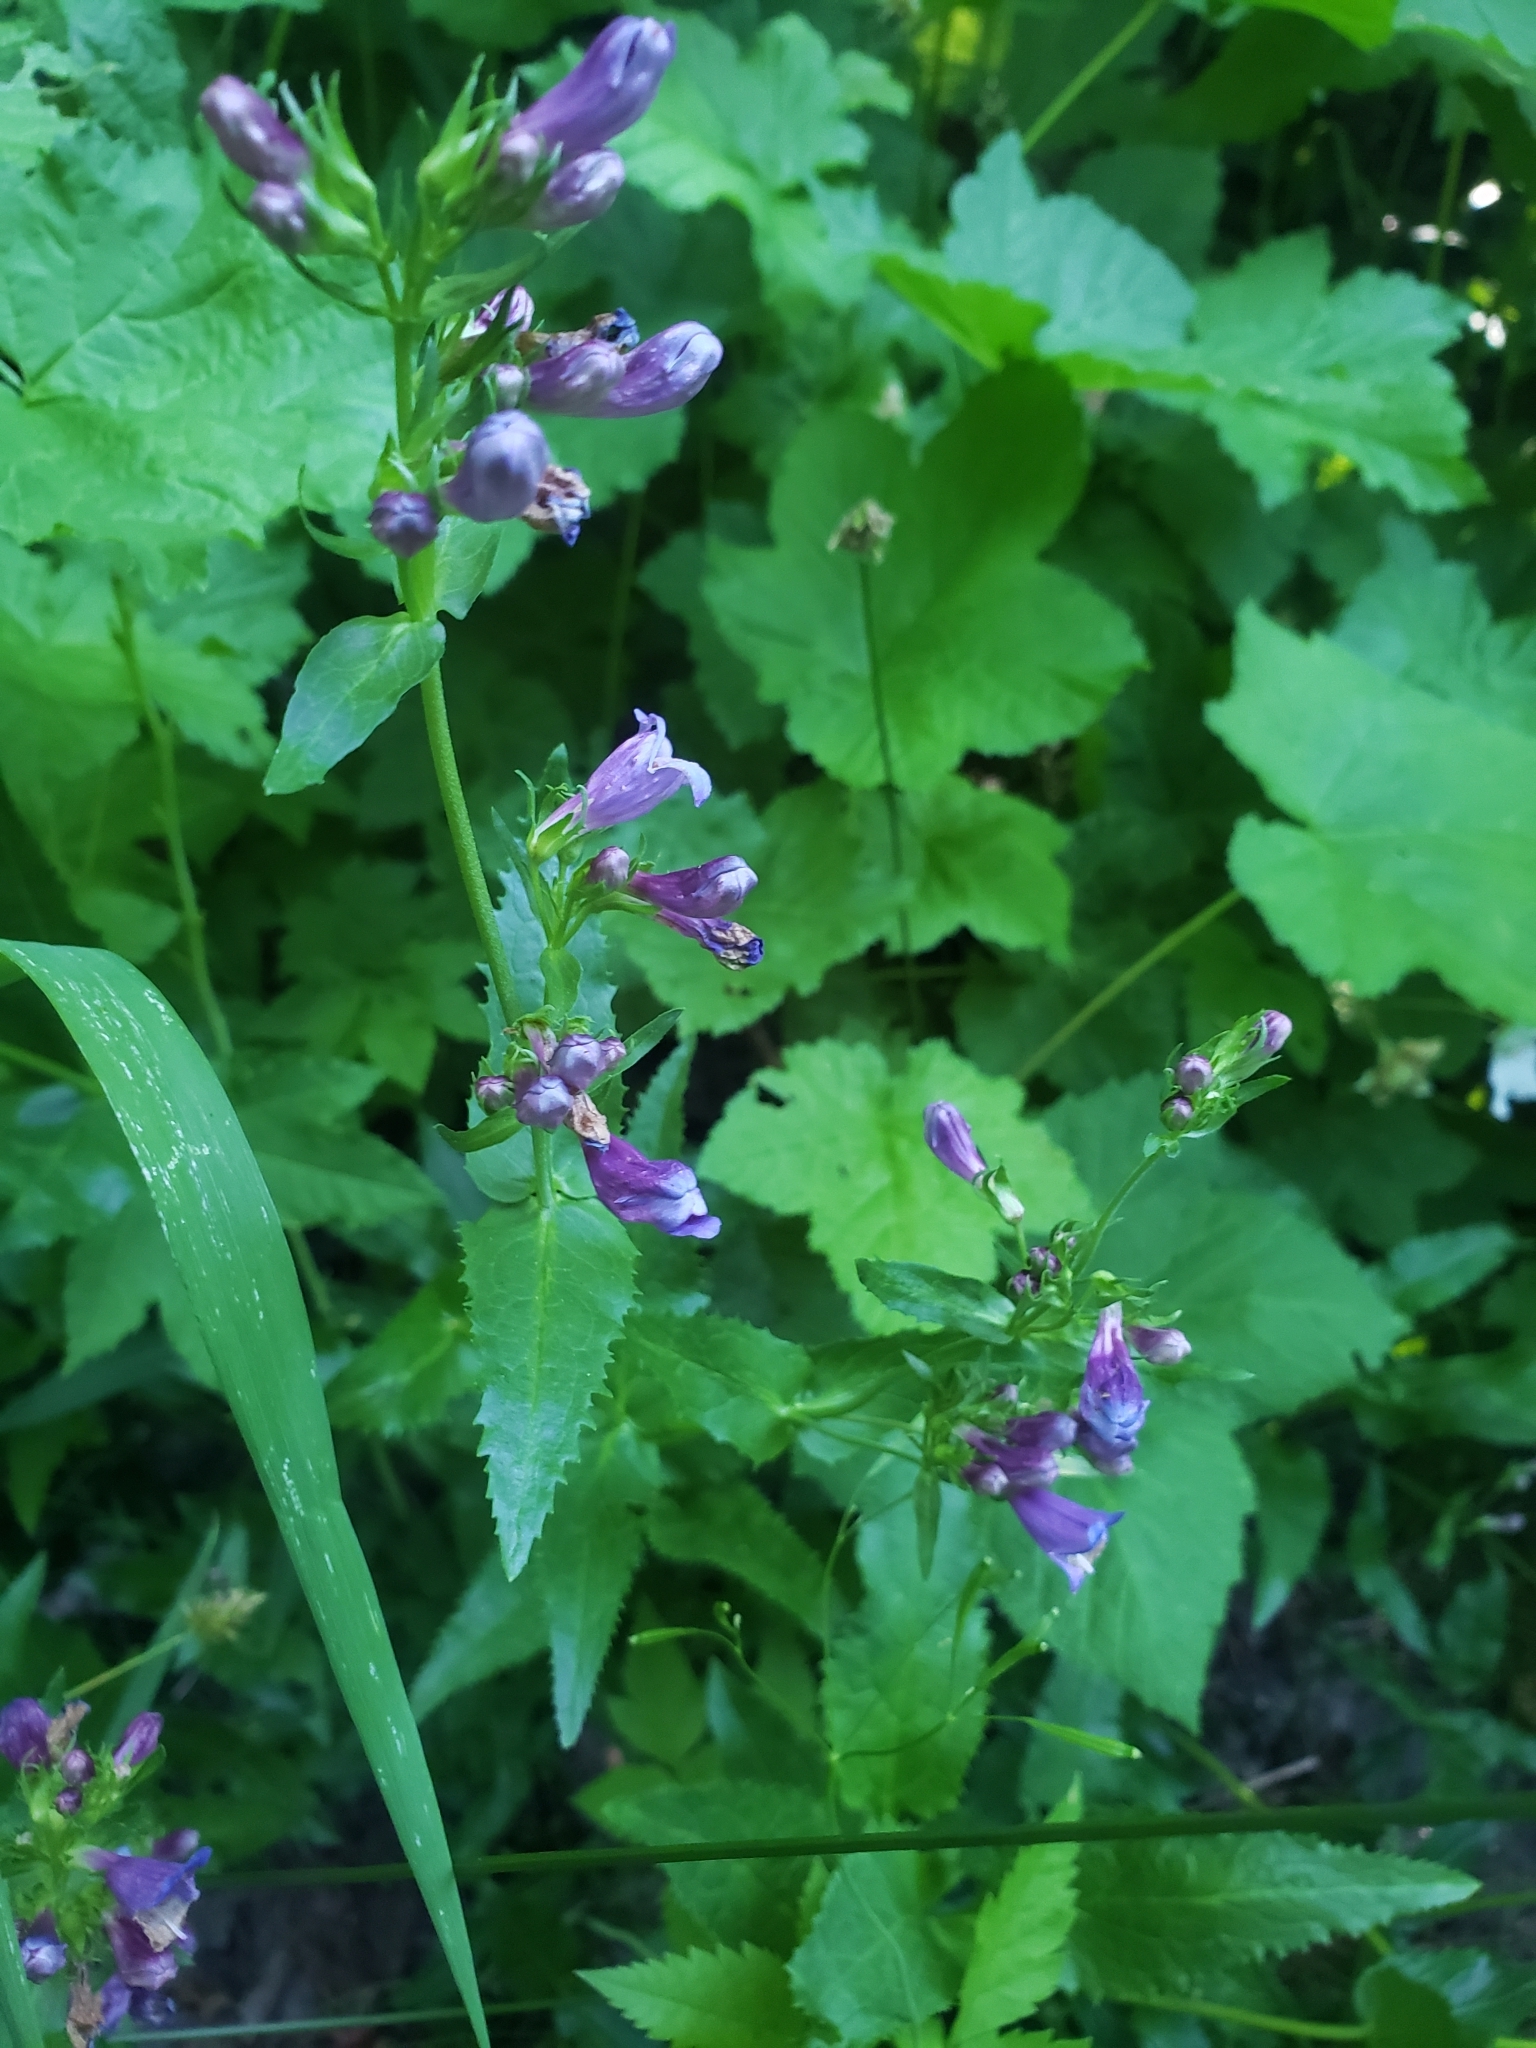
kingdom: Plantae
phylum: Tracheophyta
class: Magnoliopsida
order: Lamiales
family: Plantaginaceae
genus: Penstemon
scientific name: Penstemon serrulatus
